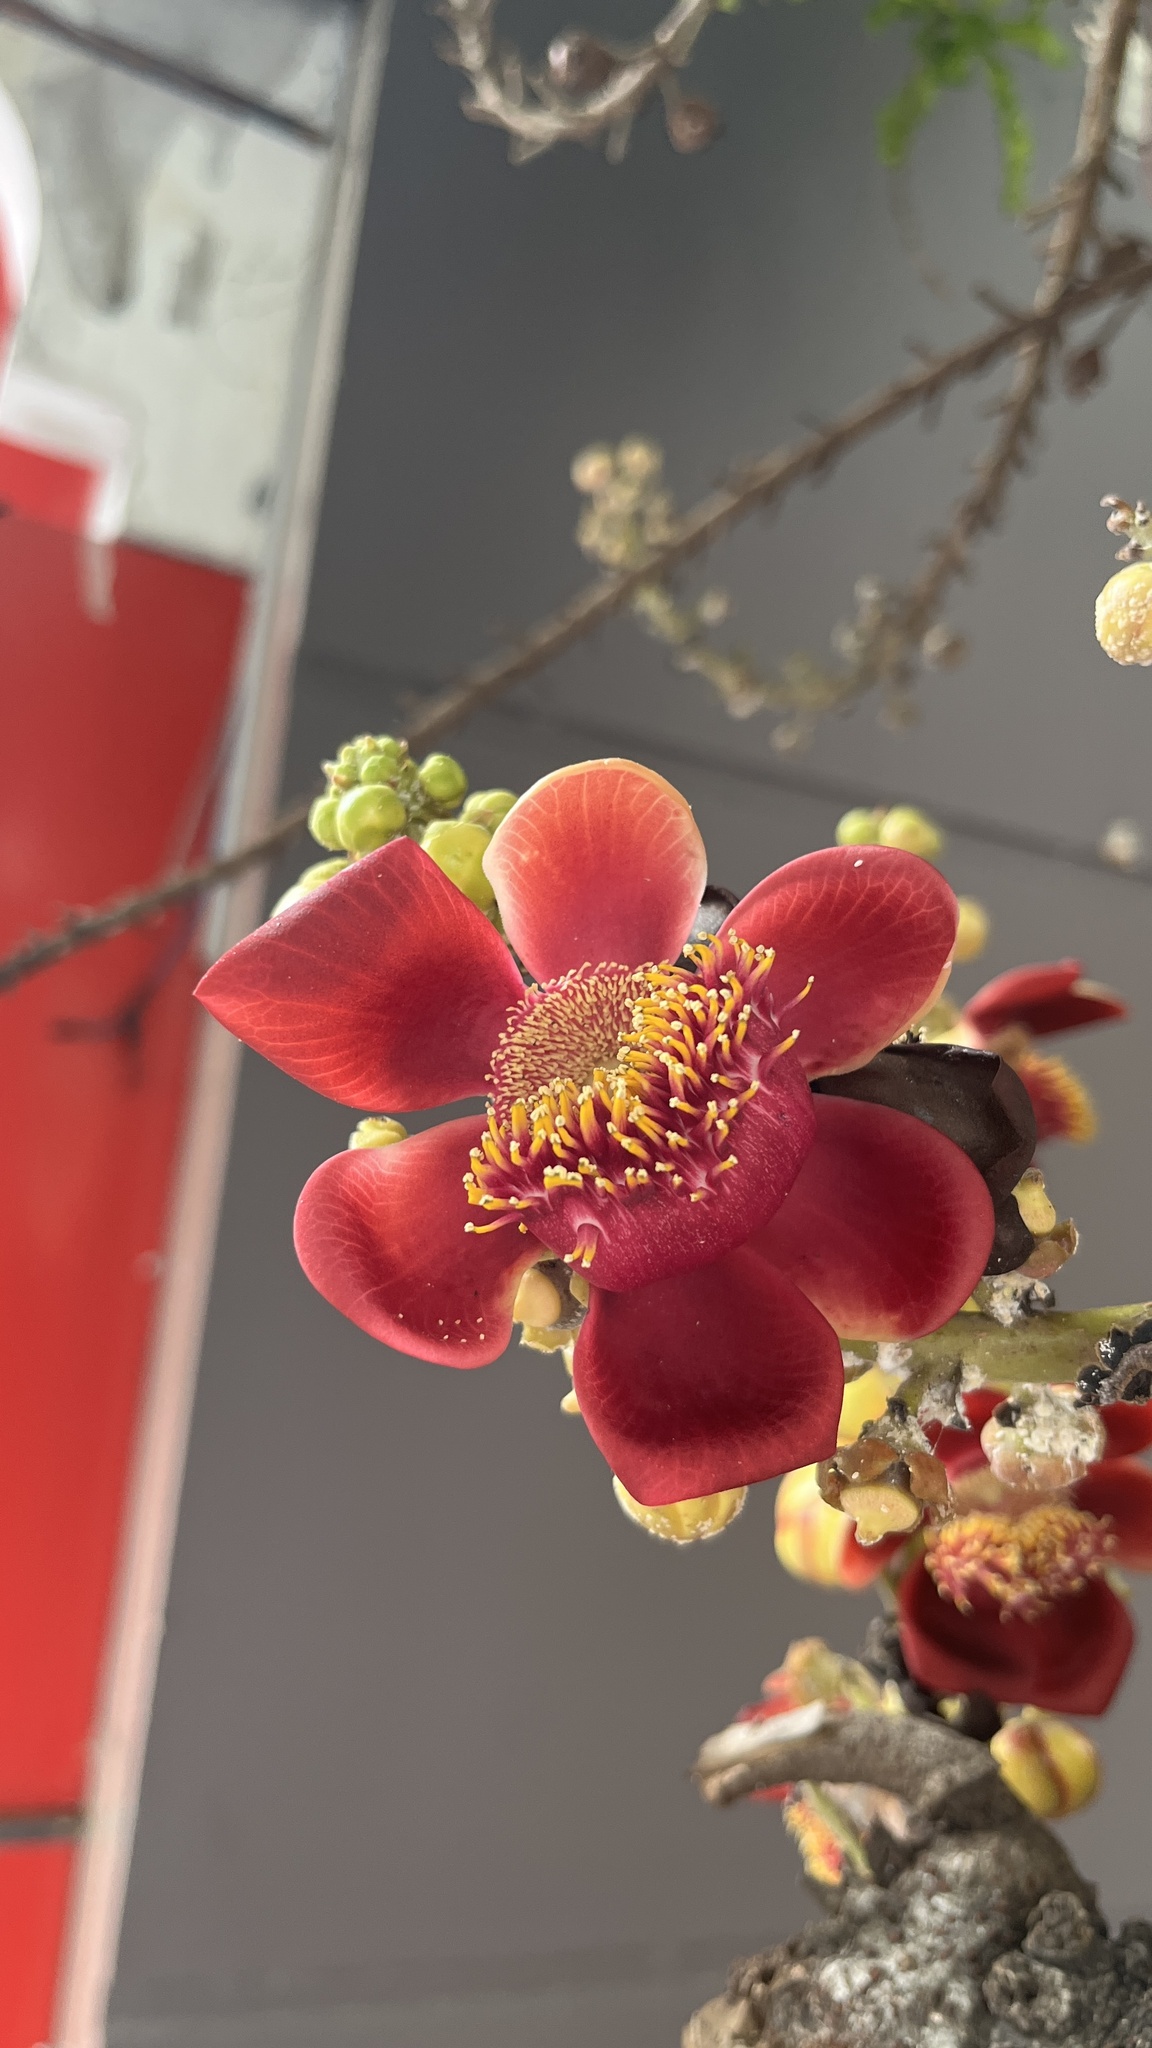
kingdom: Plantae
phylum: Tracheophyta
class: Magnoliopsida
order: Ericales
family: Lecythidaceae
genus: Couroupita
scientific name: Couroupita guianensis
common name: Cannonball tree
